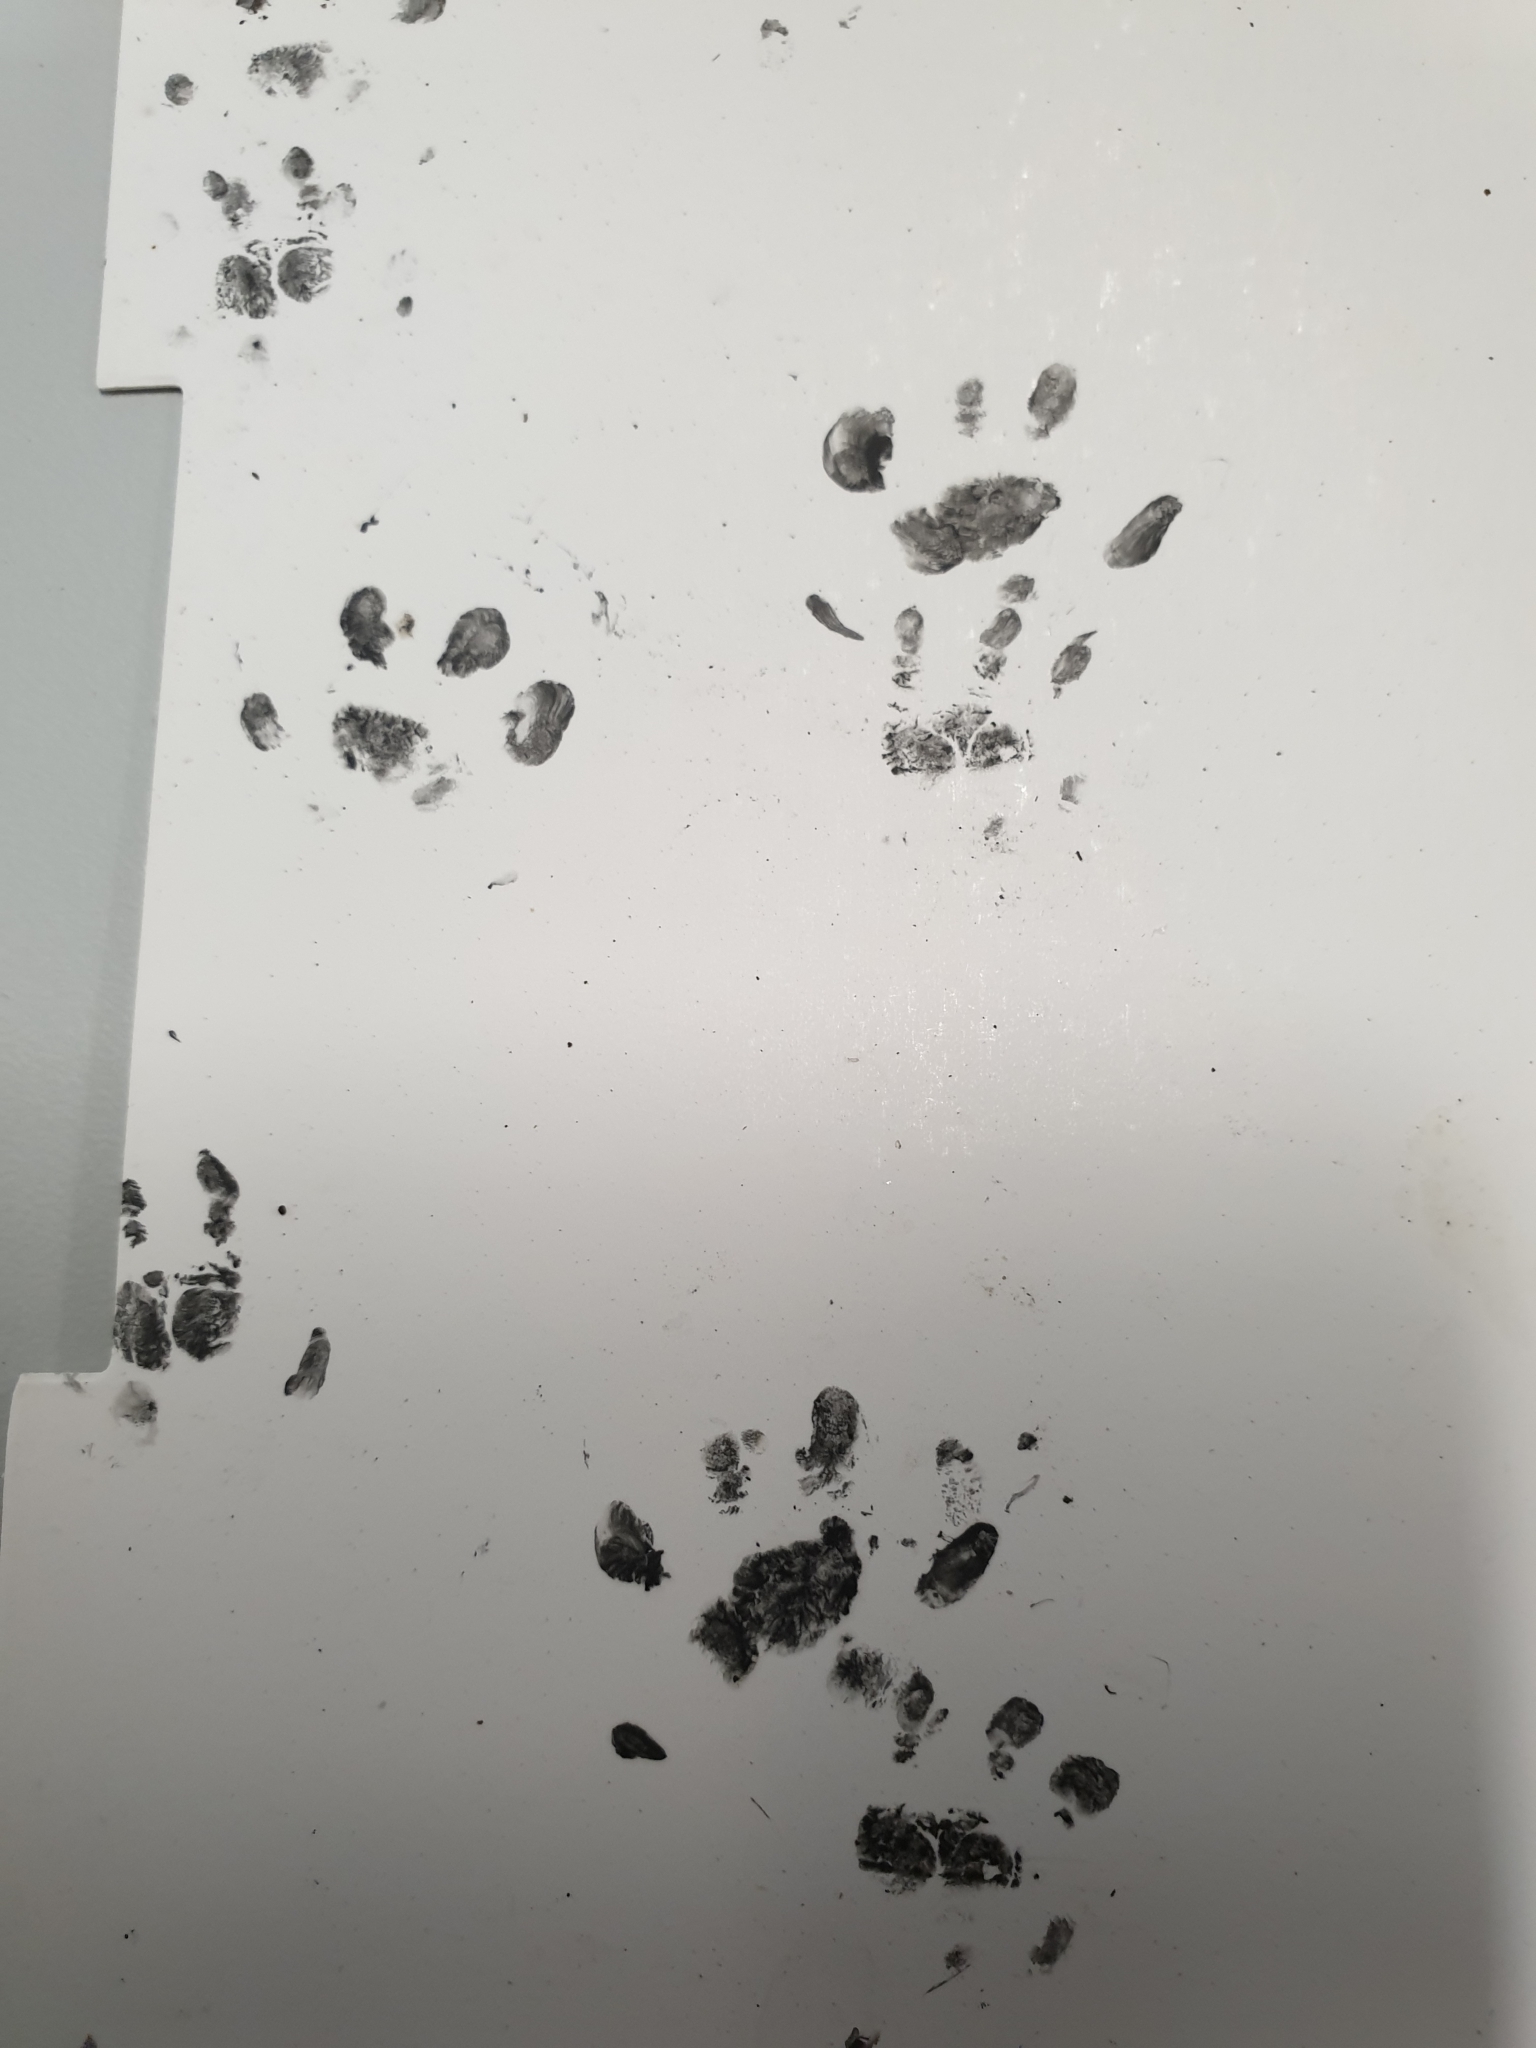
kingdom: Animalia
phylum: Chordata
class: Mammalia
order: Erinaceomorpha
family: Erinaceidae
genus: Erinaceus
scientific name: Erinaceus europaeus
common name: West european hedgehog
